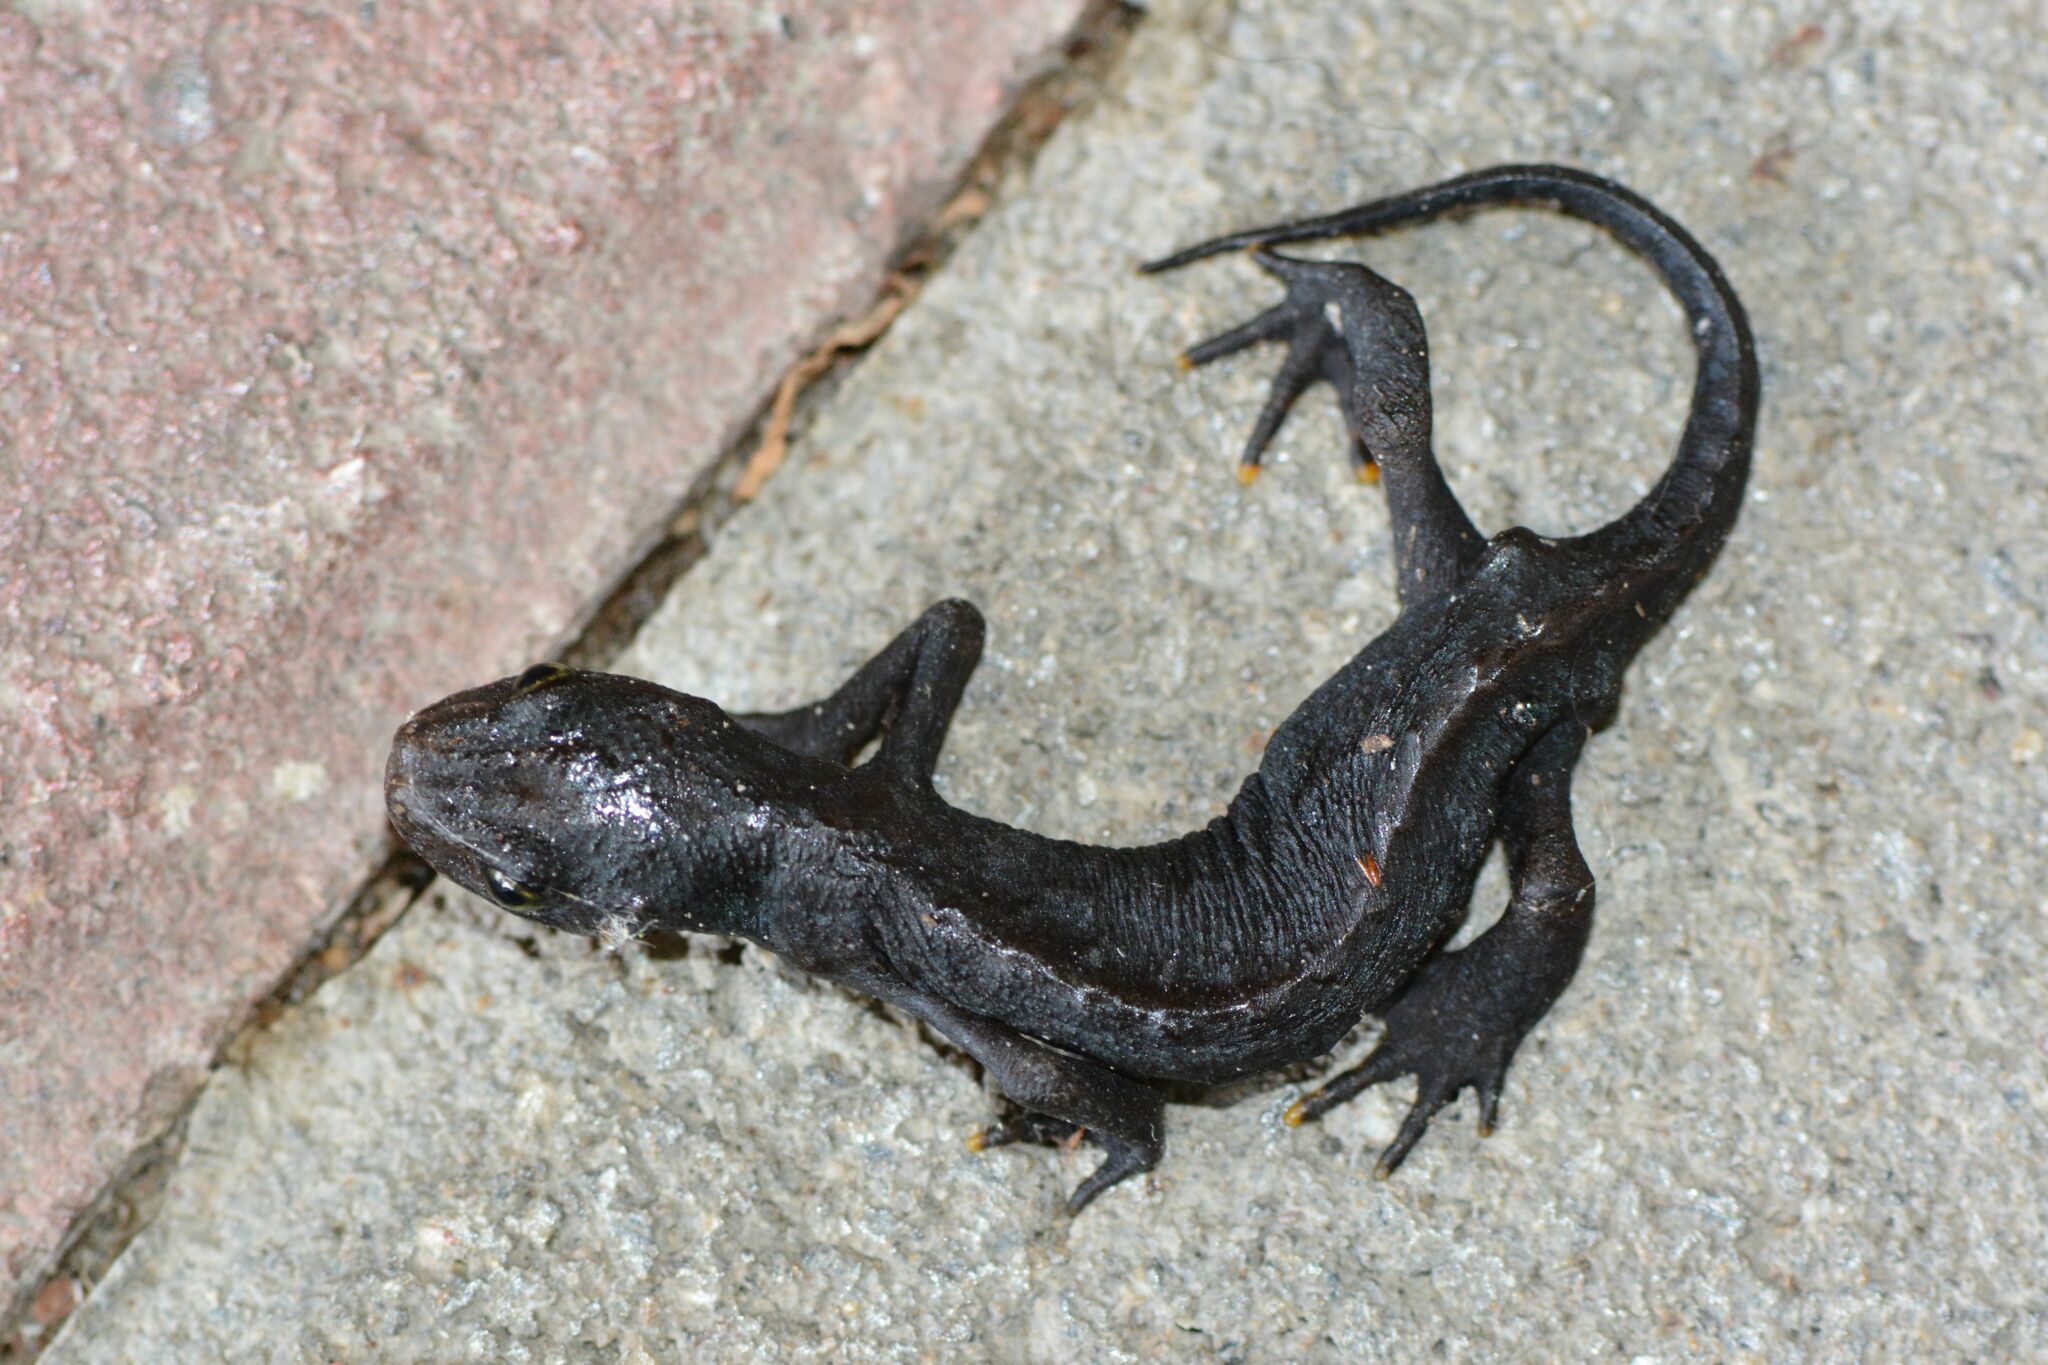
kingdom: Animalia
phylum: Chordata
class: Amphibia
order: Caudata
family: Salamandridae
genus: Ichthyosaura
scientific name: Ichthyosaura alpestris
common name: Alpine newt
